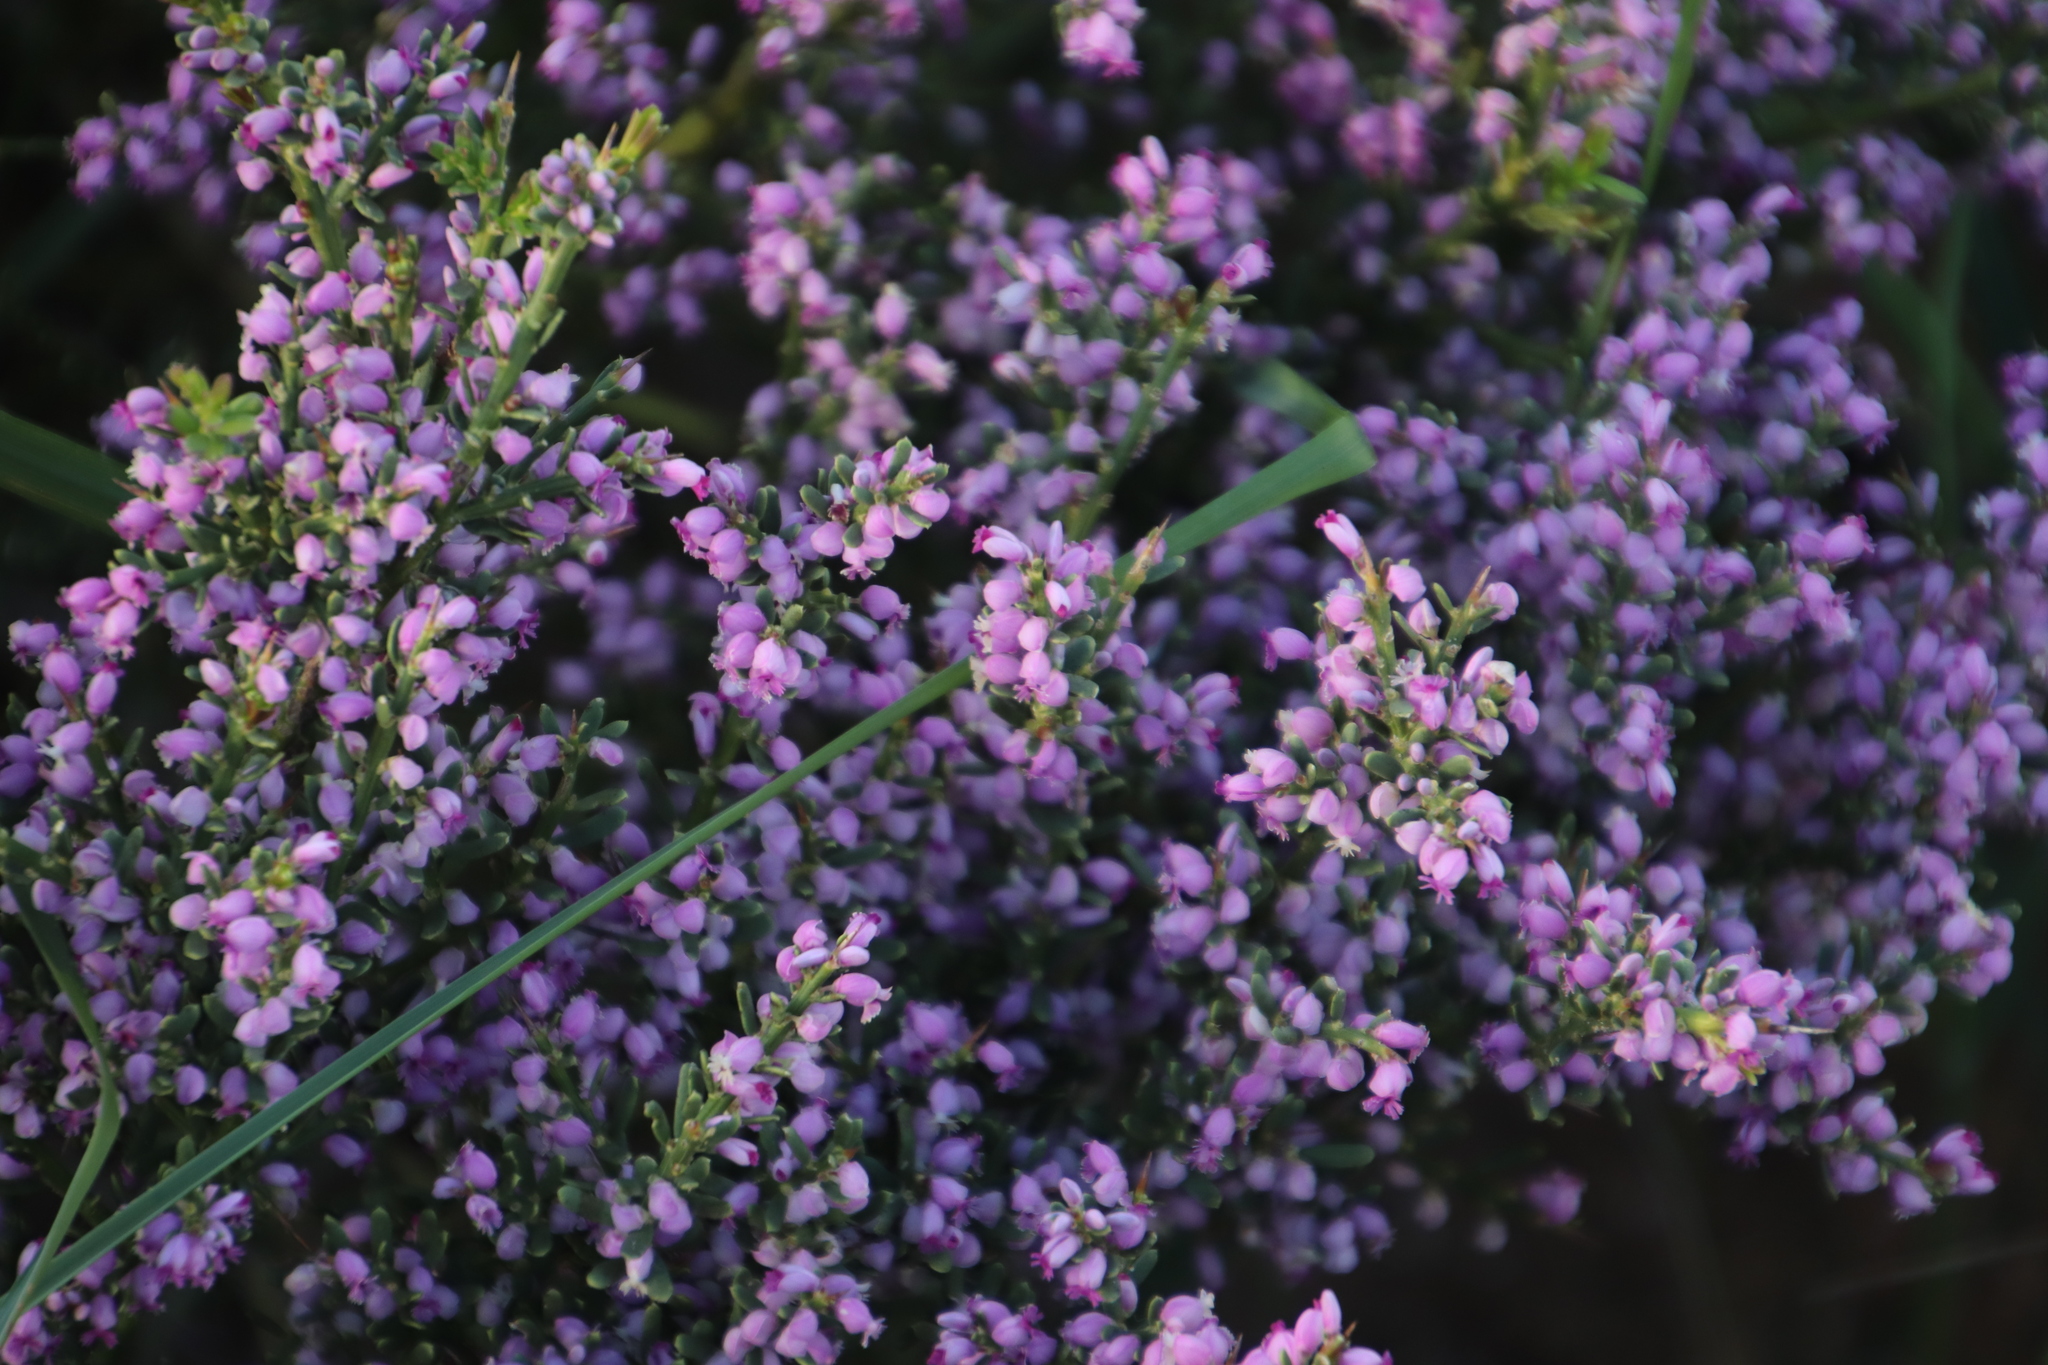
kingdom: Plantae
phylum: Tracheophyta
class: Magnoliopsida
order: Fabales
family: Polygalaceae
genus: Muraltia
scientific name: Muraltia spinosa
